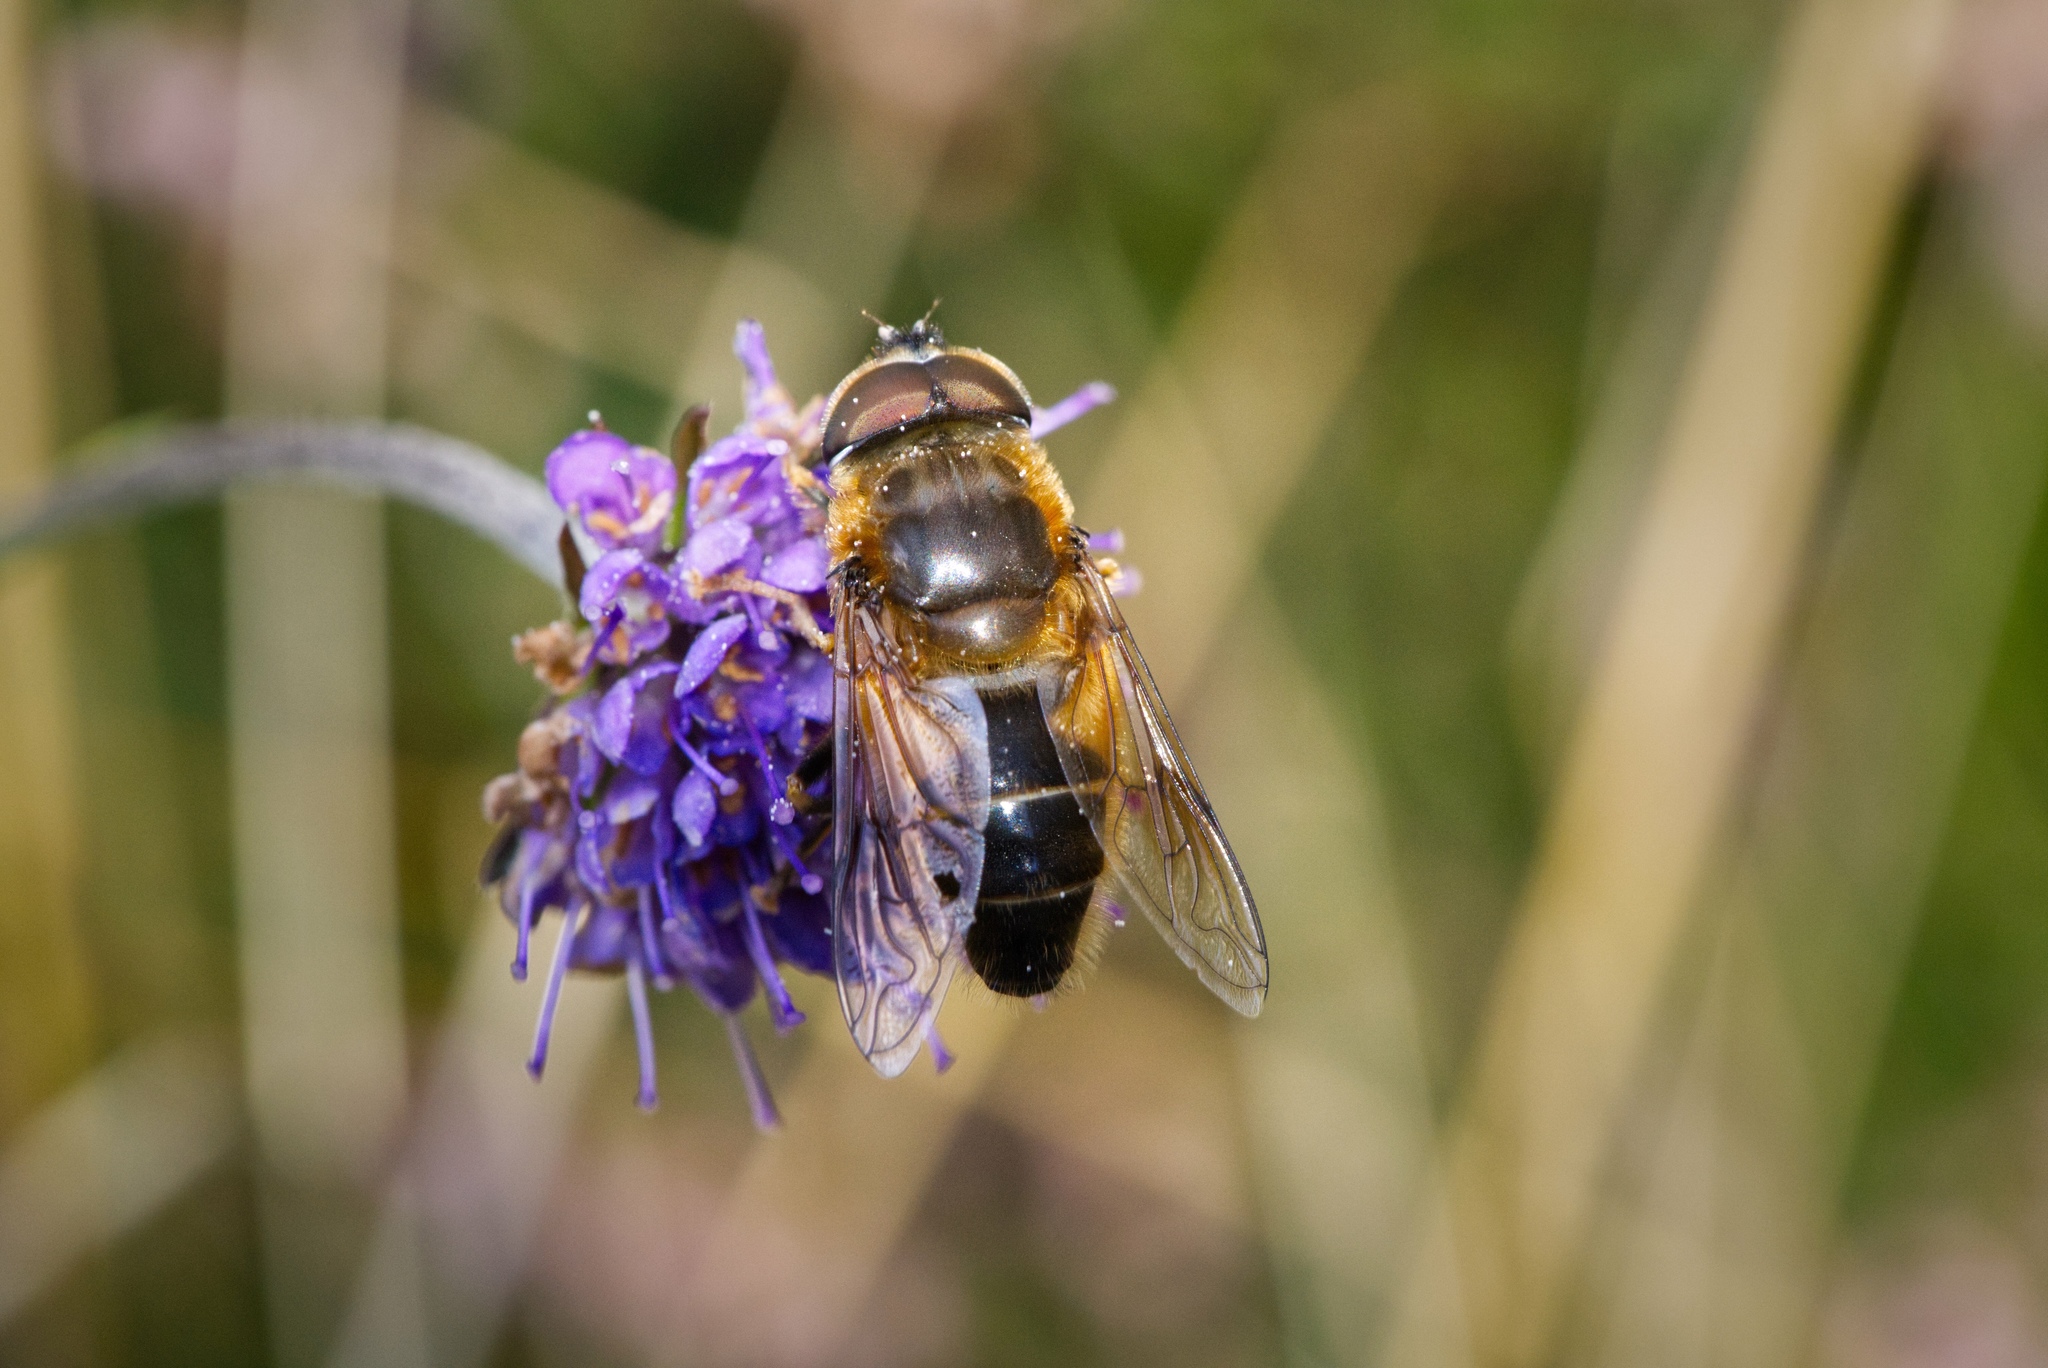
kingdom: Animalia
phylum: Arthropoda
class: Insecta
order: Diptera
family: Syrphidae
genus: Eristalis
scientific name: Eristalis pertinax
